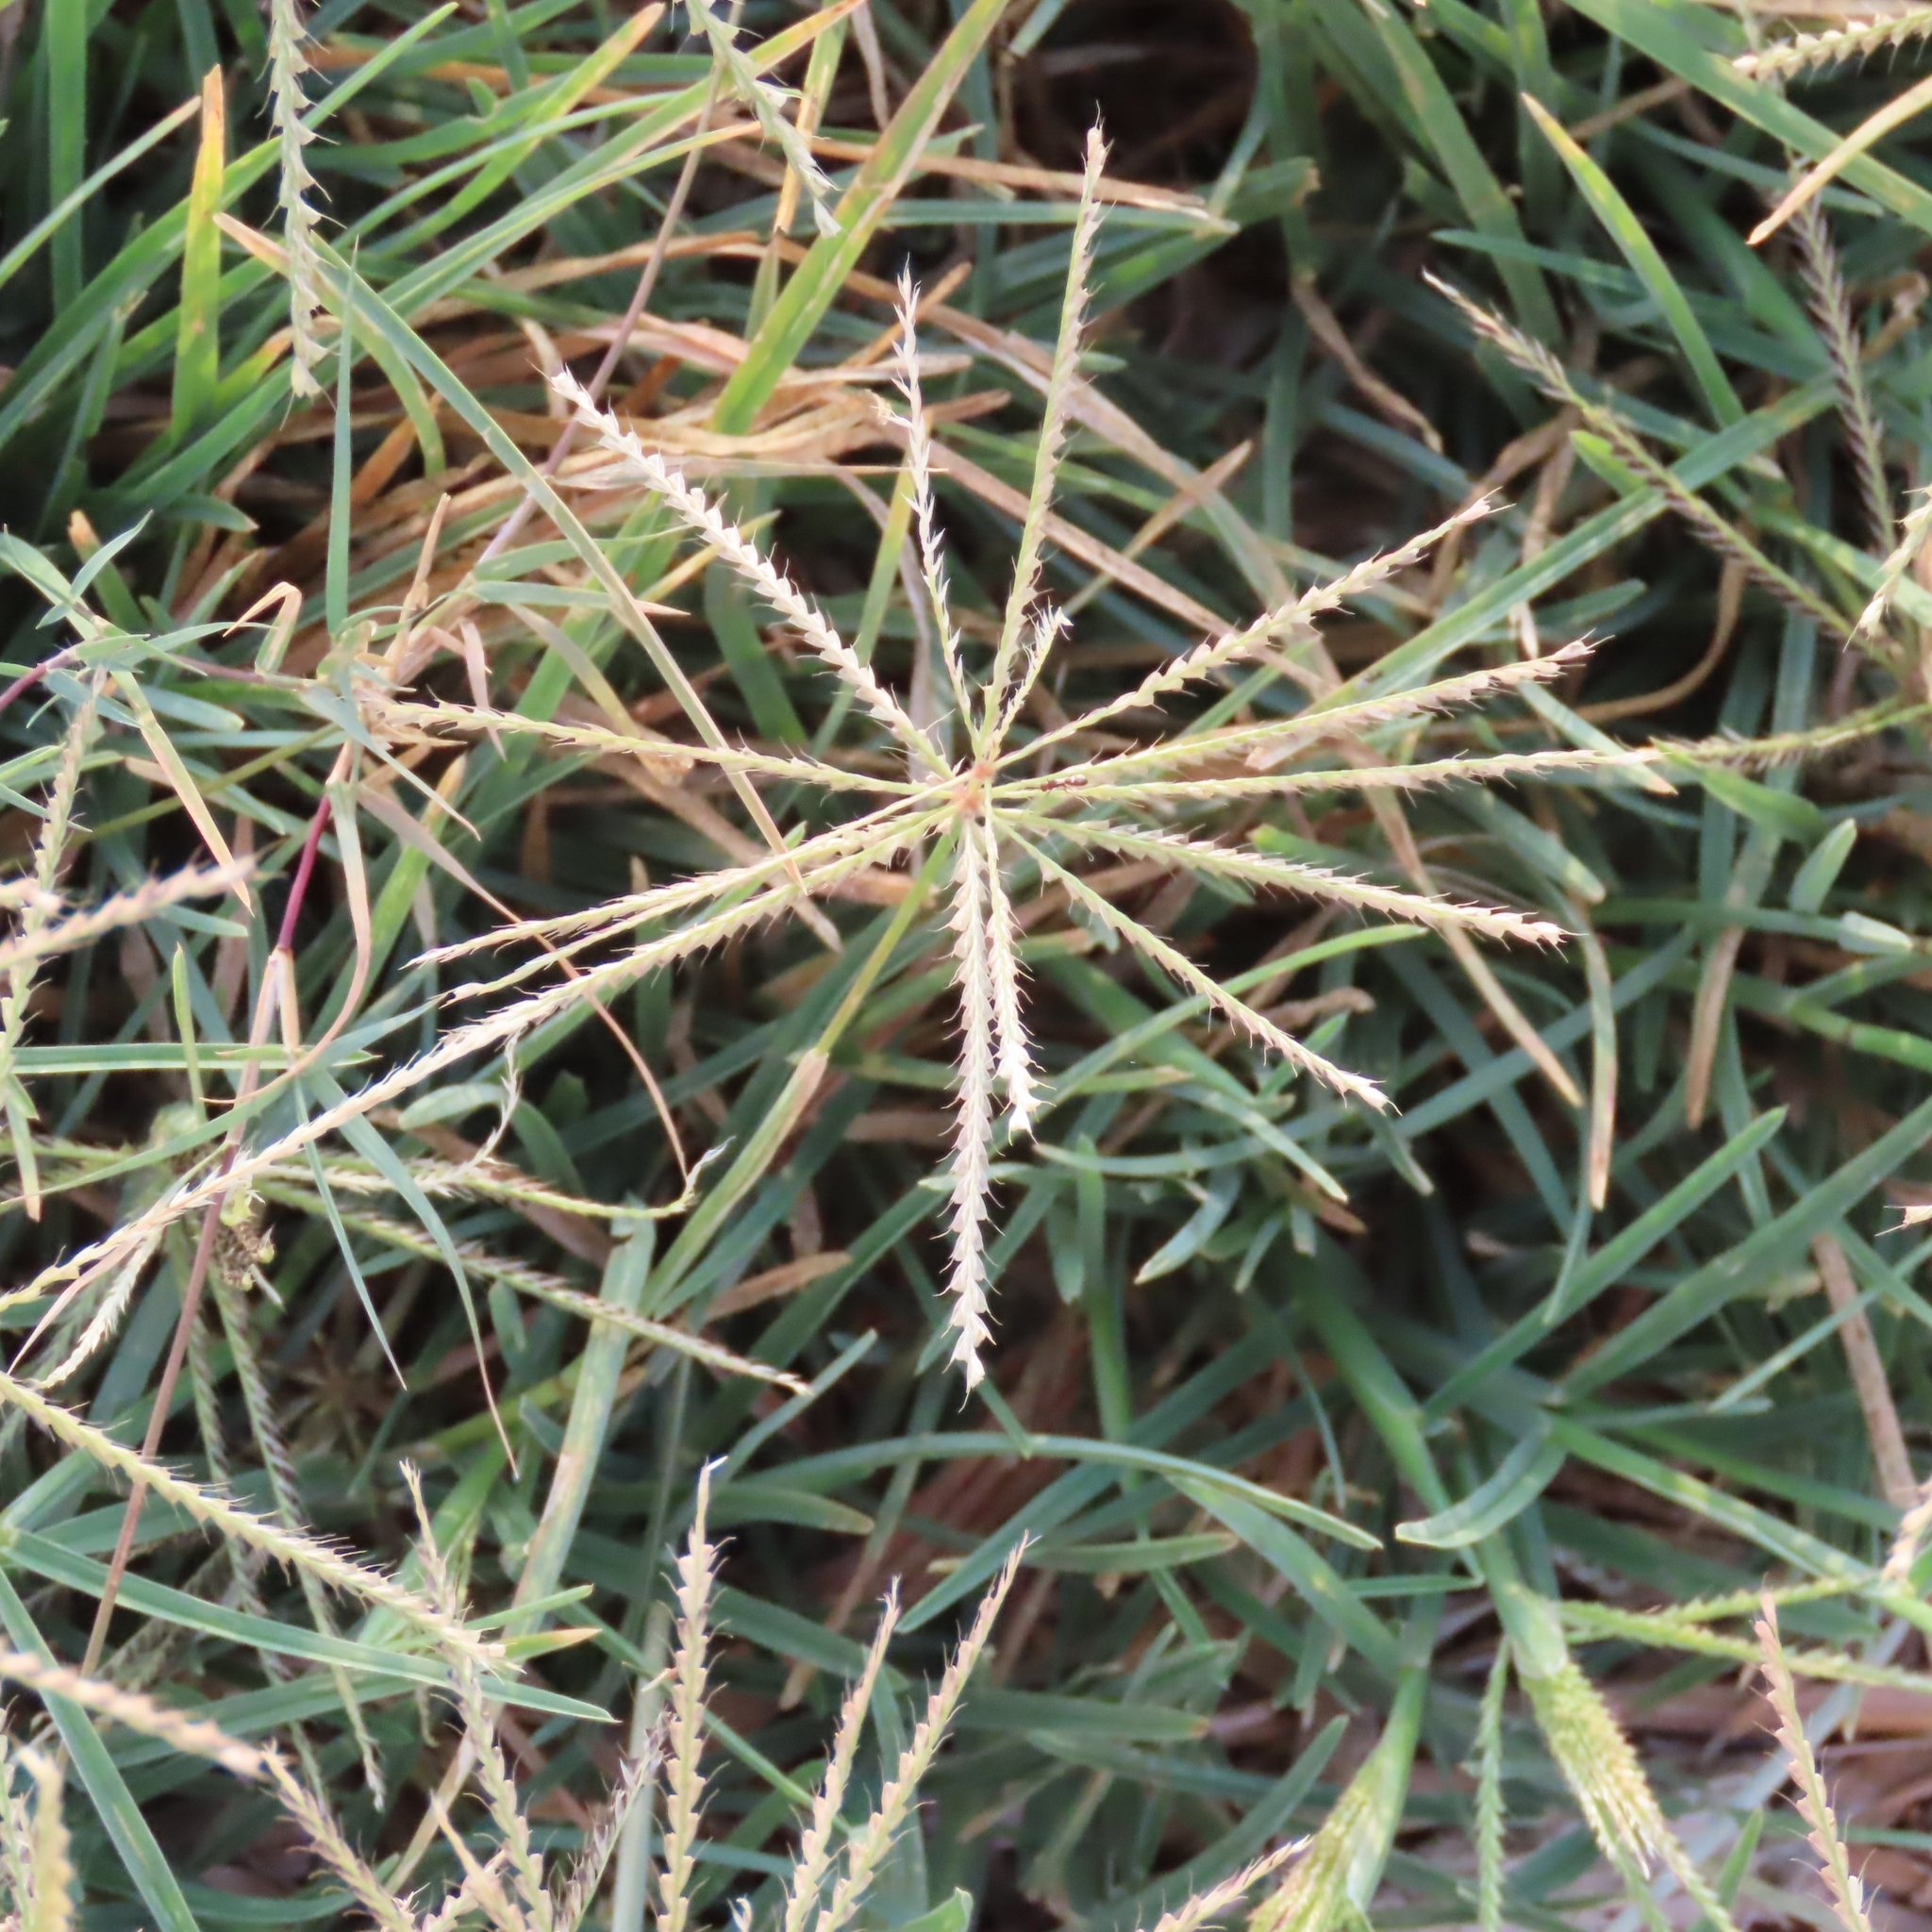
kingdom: Plantae
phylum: Tracheophyta
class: Liliopsida
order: Poales
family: Poaceae
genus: Chloris
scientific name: Chloris subdolichostachya
